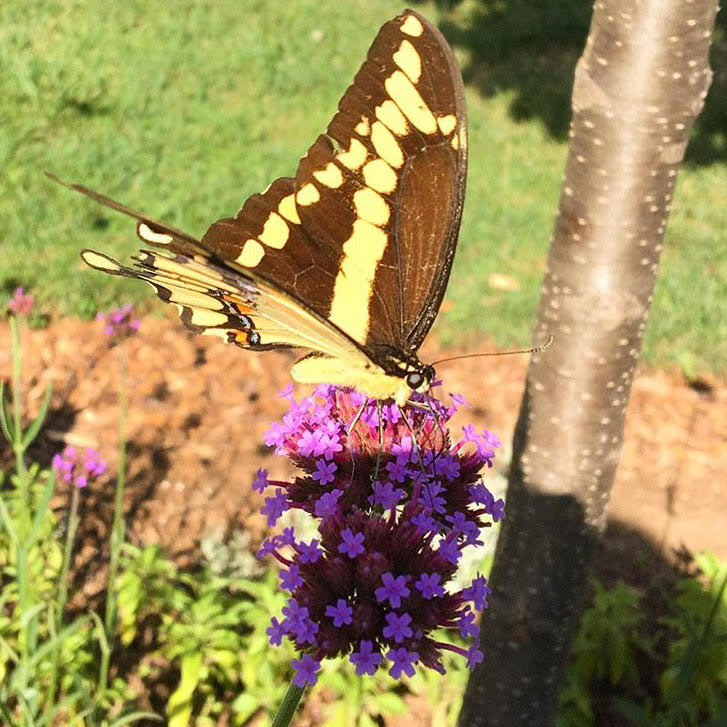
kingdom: Animalia
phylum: Arthropoda
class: Insecta
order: Lepidoptera
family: Papilionidae
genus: Papilio
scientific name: Papilio glaucus
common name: Tiger swallowtail
